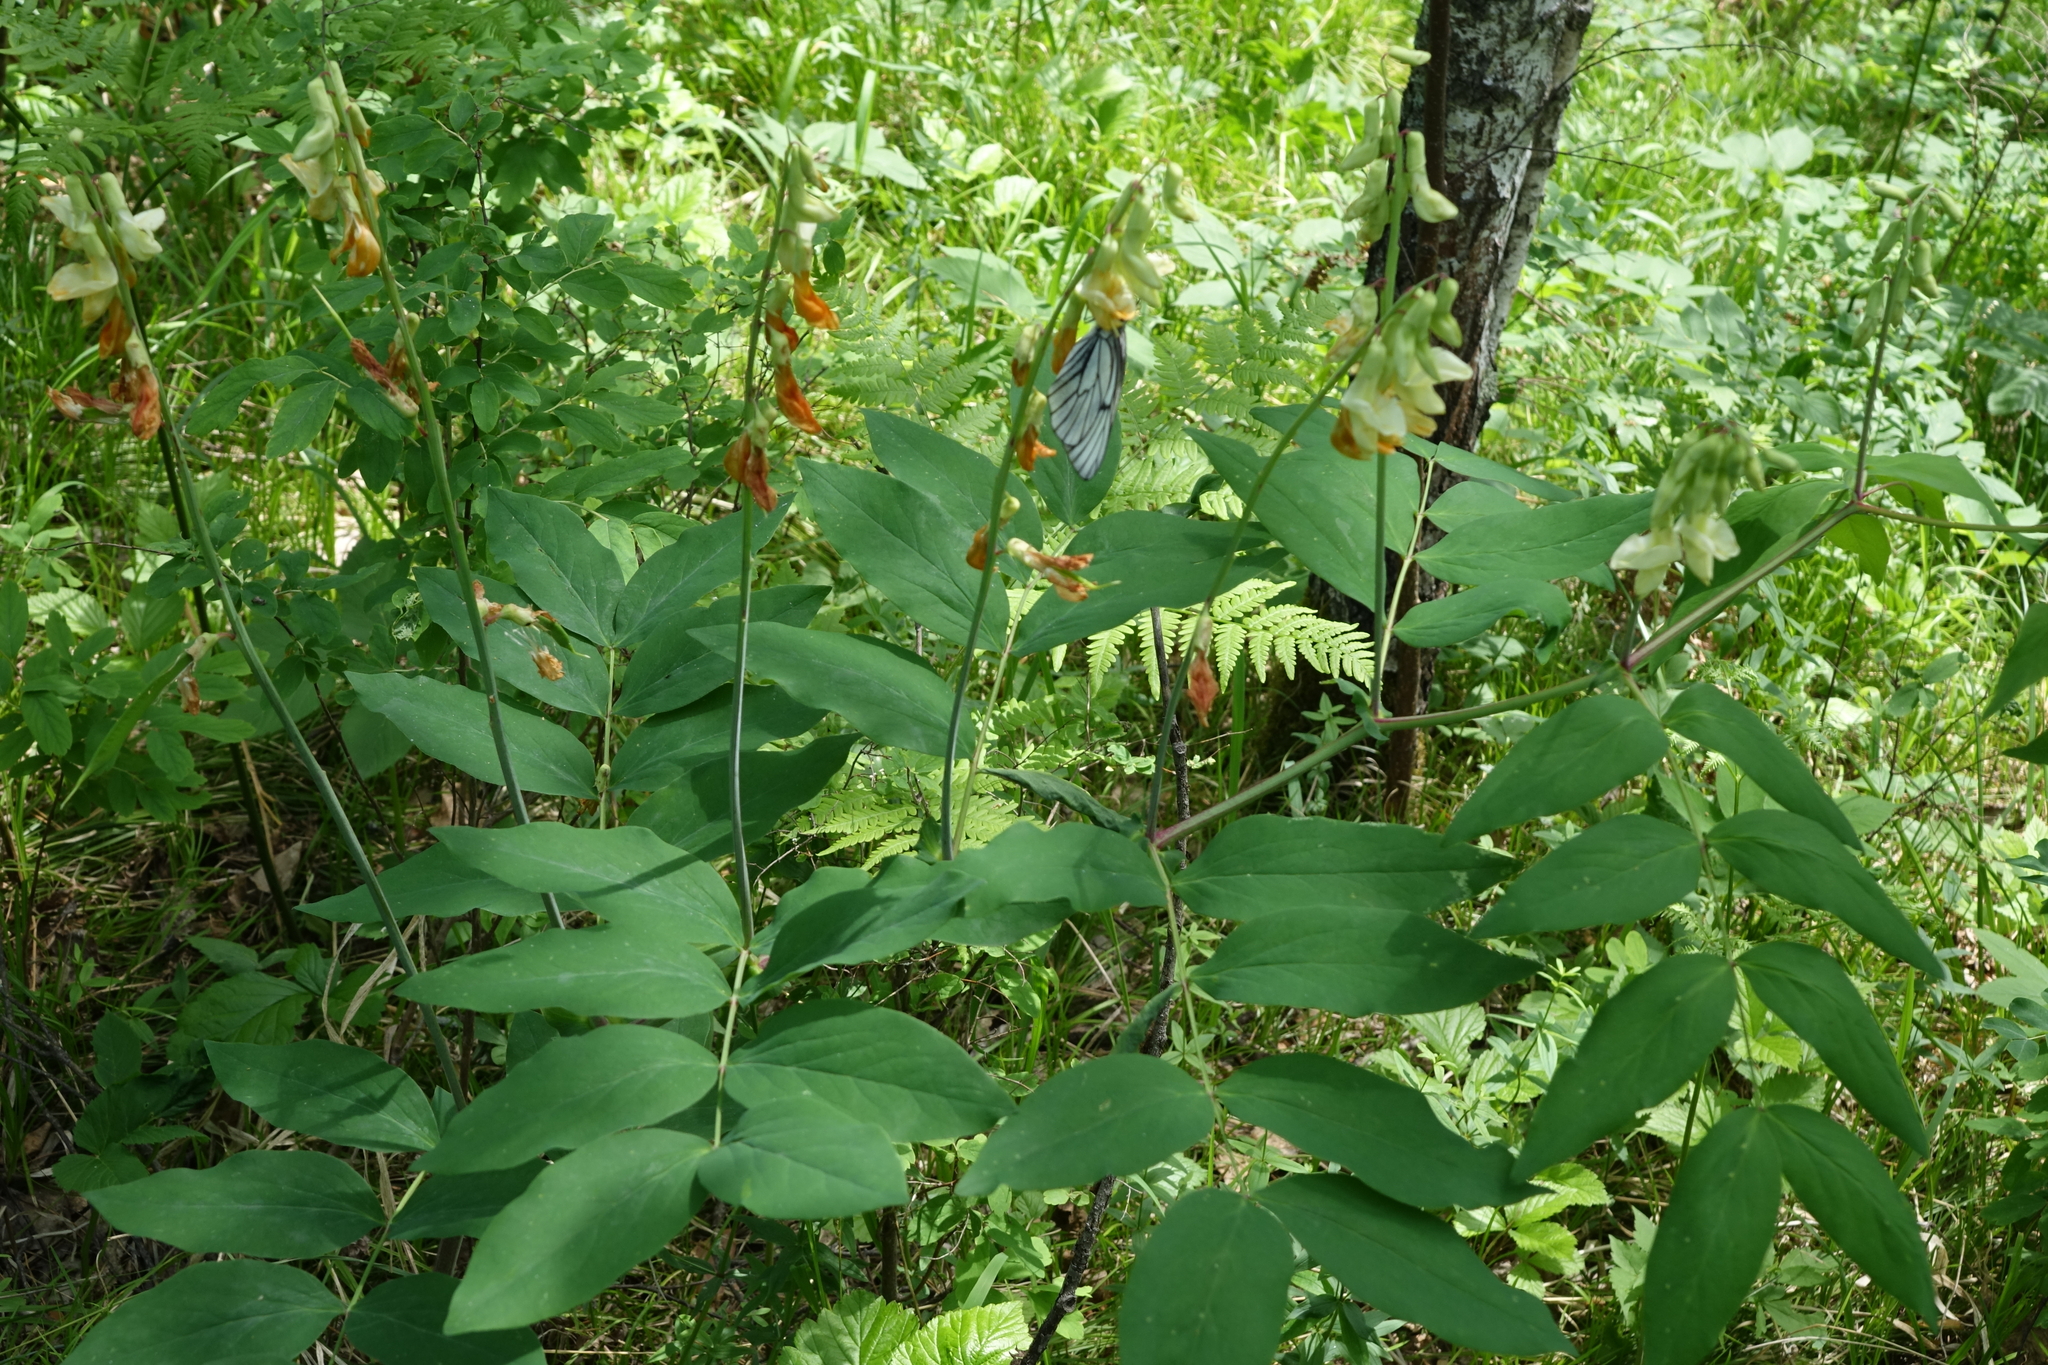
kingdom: Plantae
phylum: Tracheophyta
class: Magnoliopsida
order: Fabales
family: Fabaceae
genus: Lathyrus
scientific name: Lathyrus gmelinii
